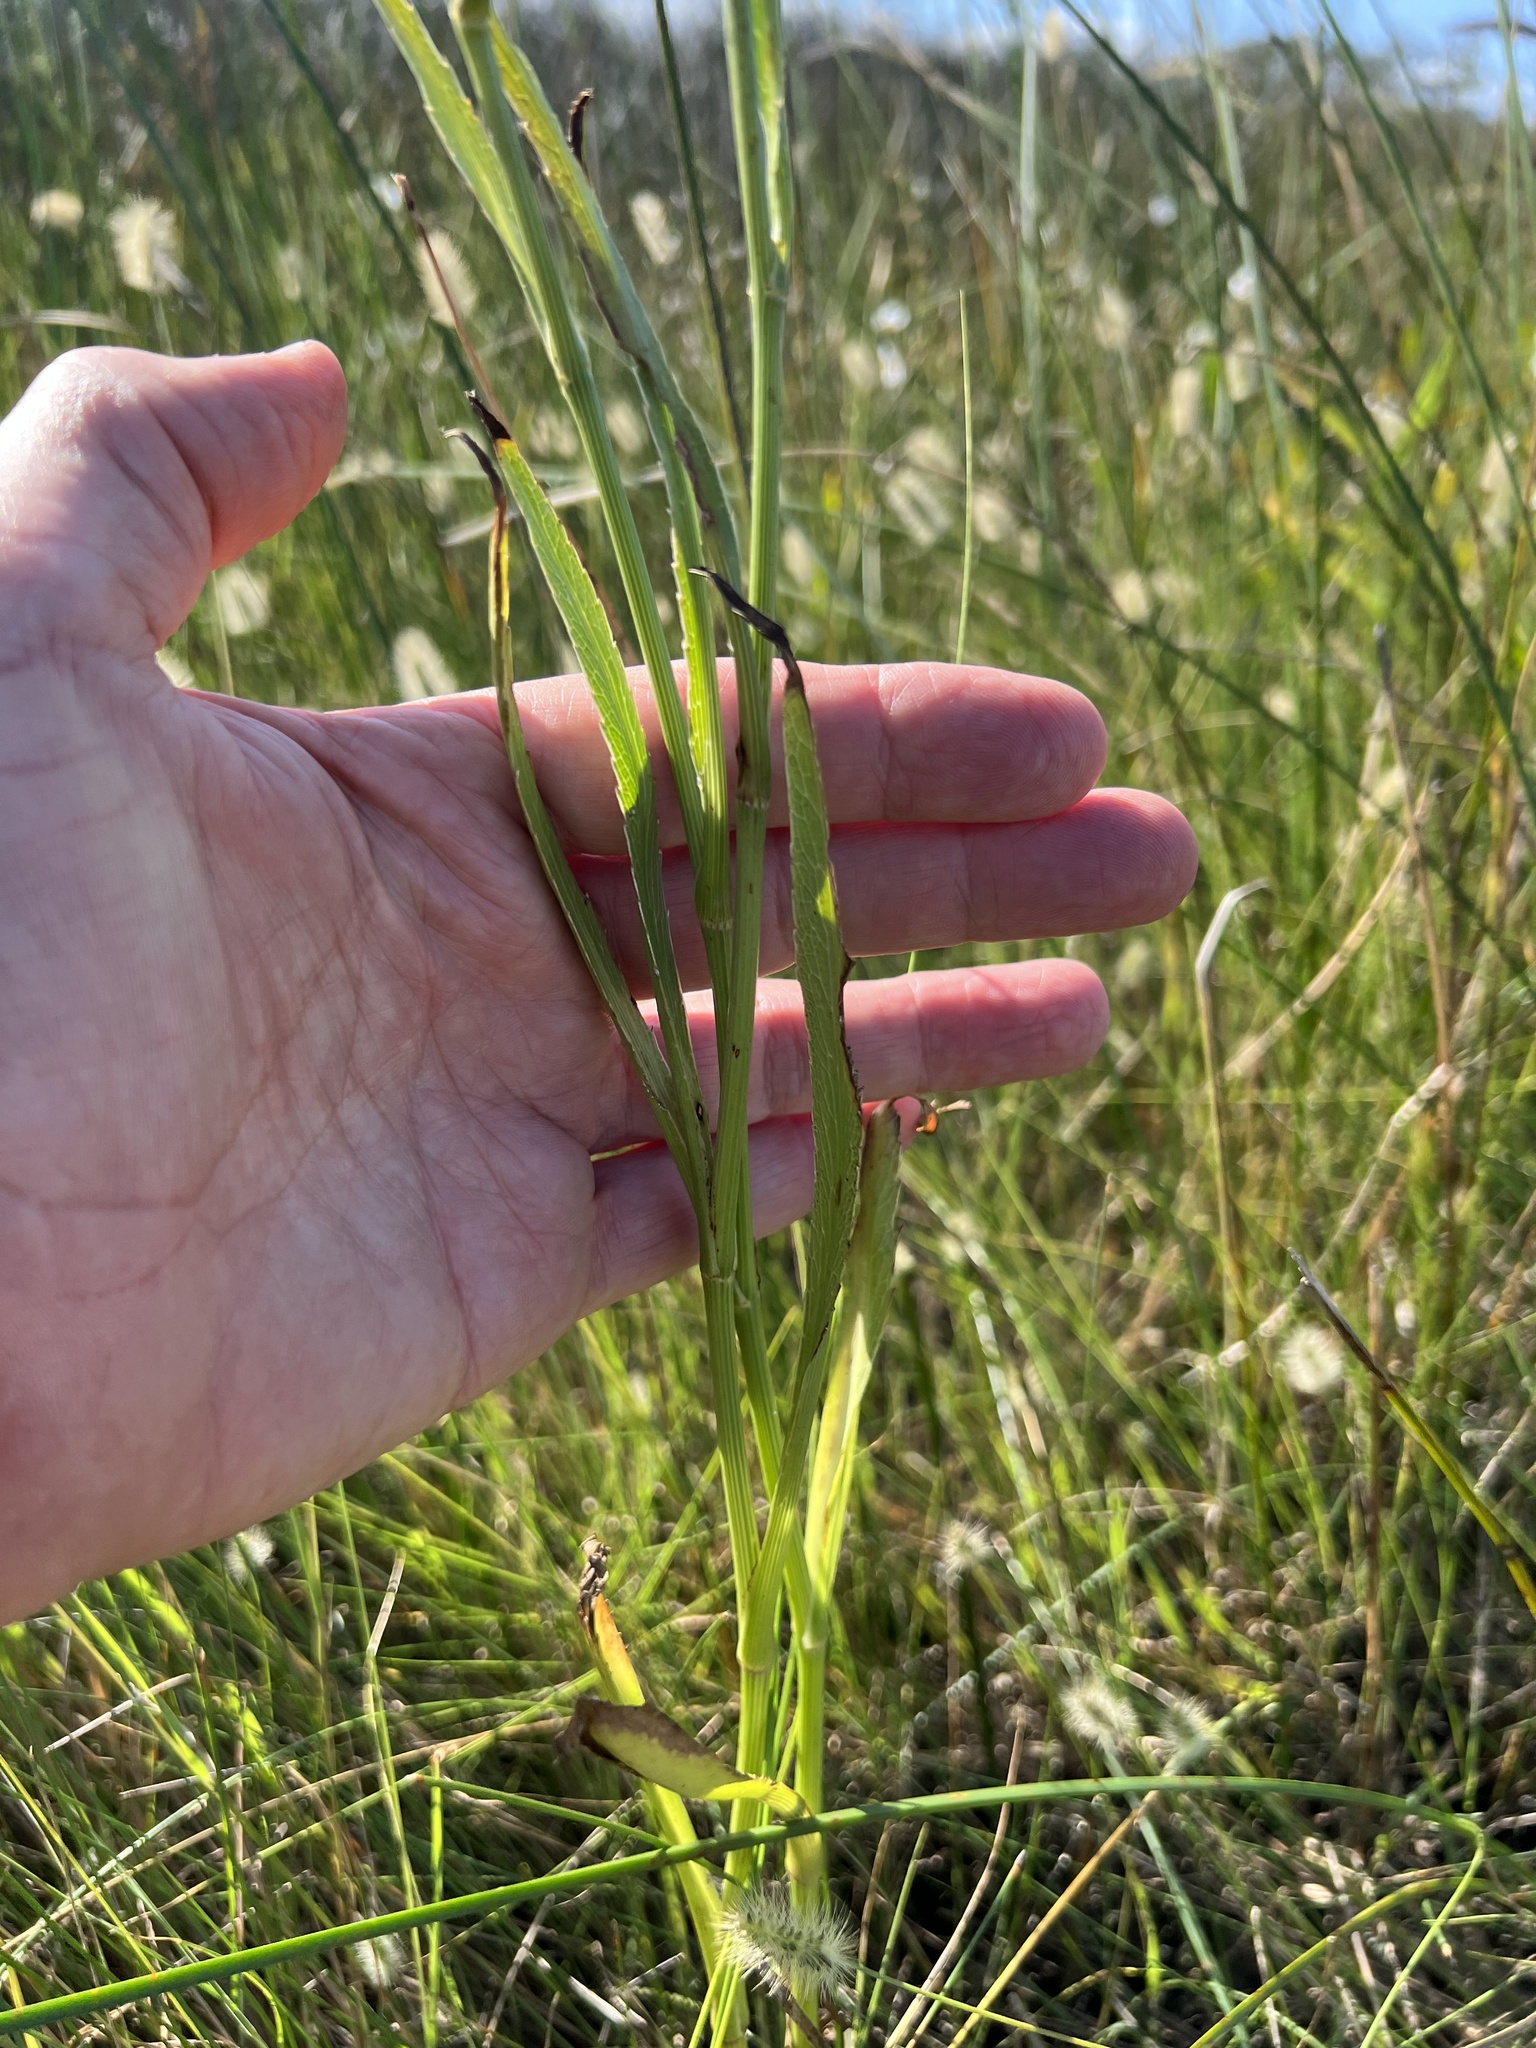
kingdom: Plantae
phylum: Tracheophyta
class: Magnoliopsida
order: Apiales
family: Apiaceae
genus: Eryngium
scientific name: Eryngium aquaticum
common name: Water eryngo
